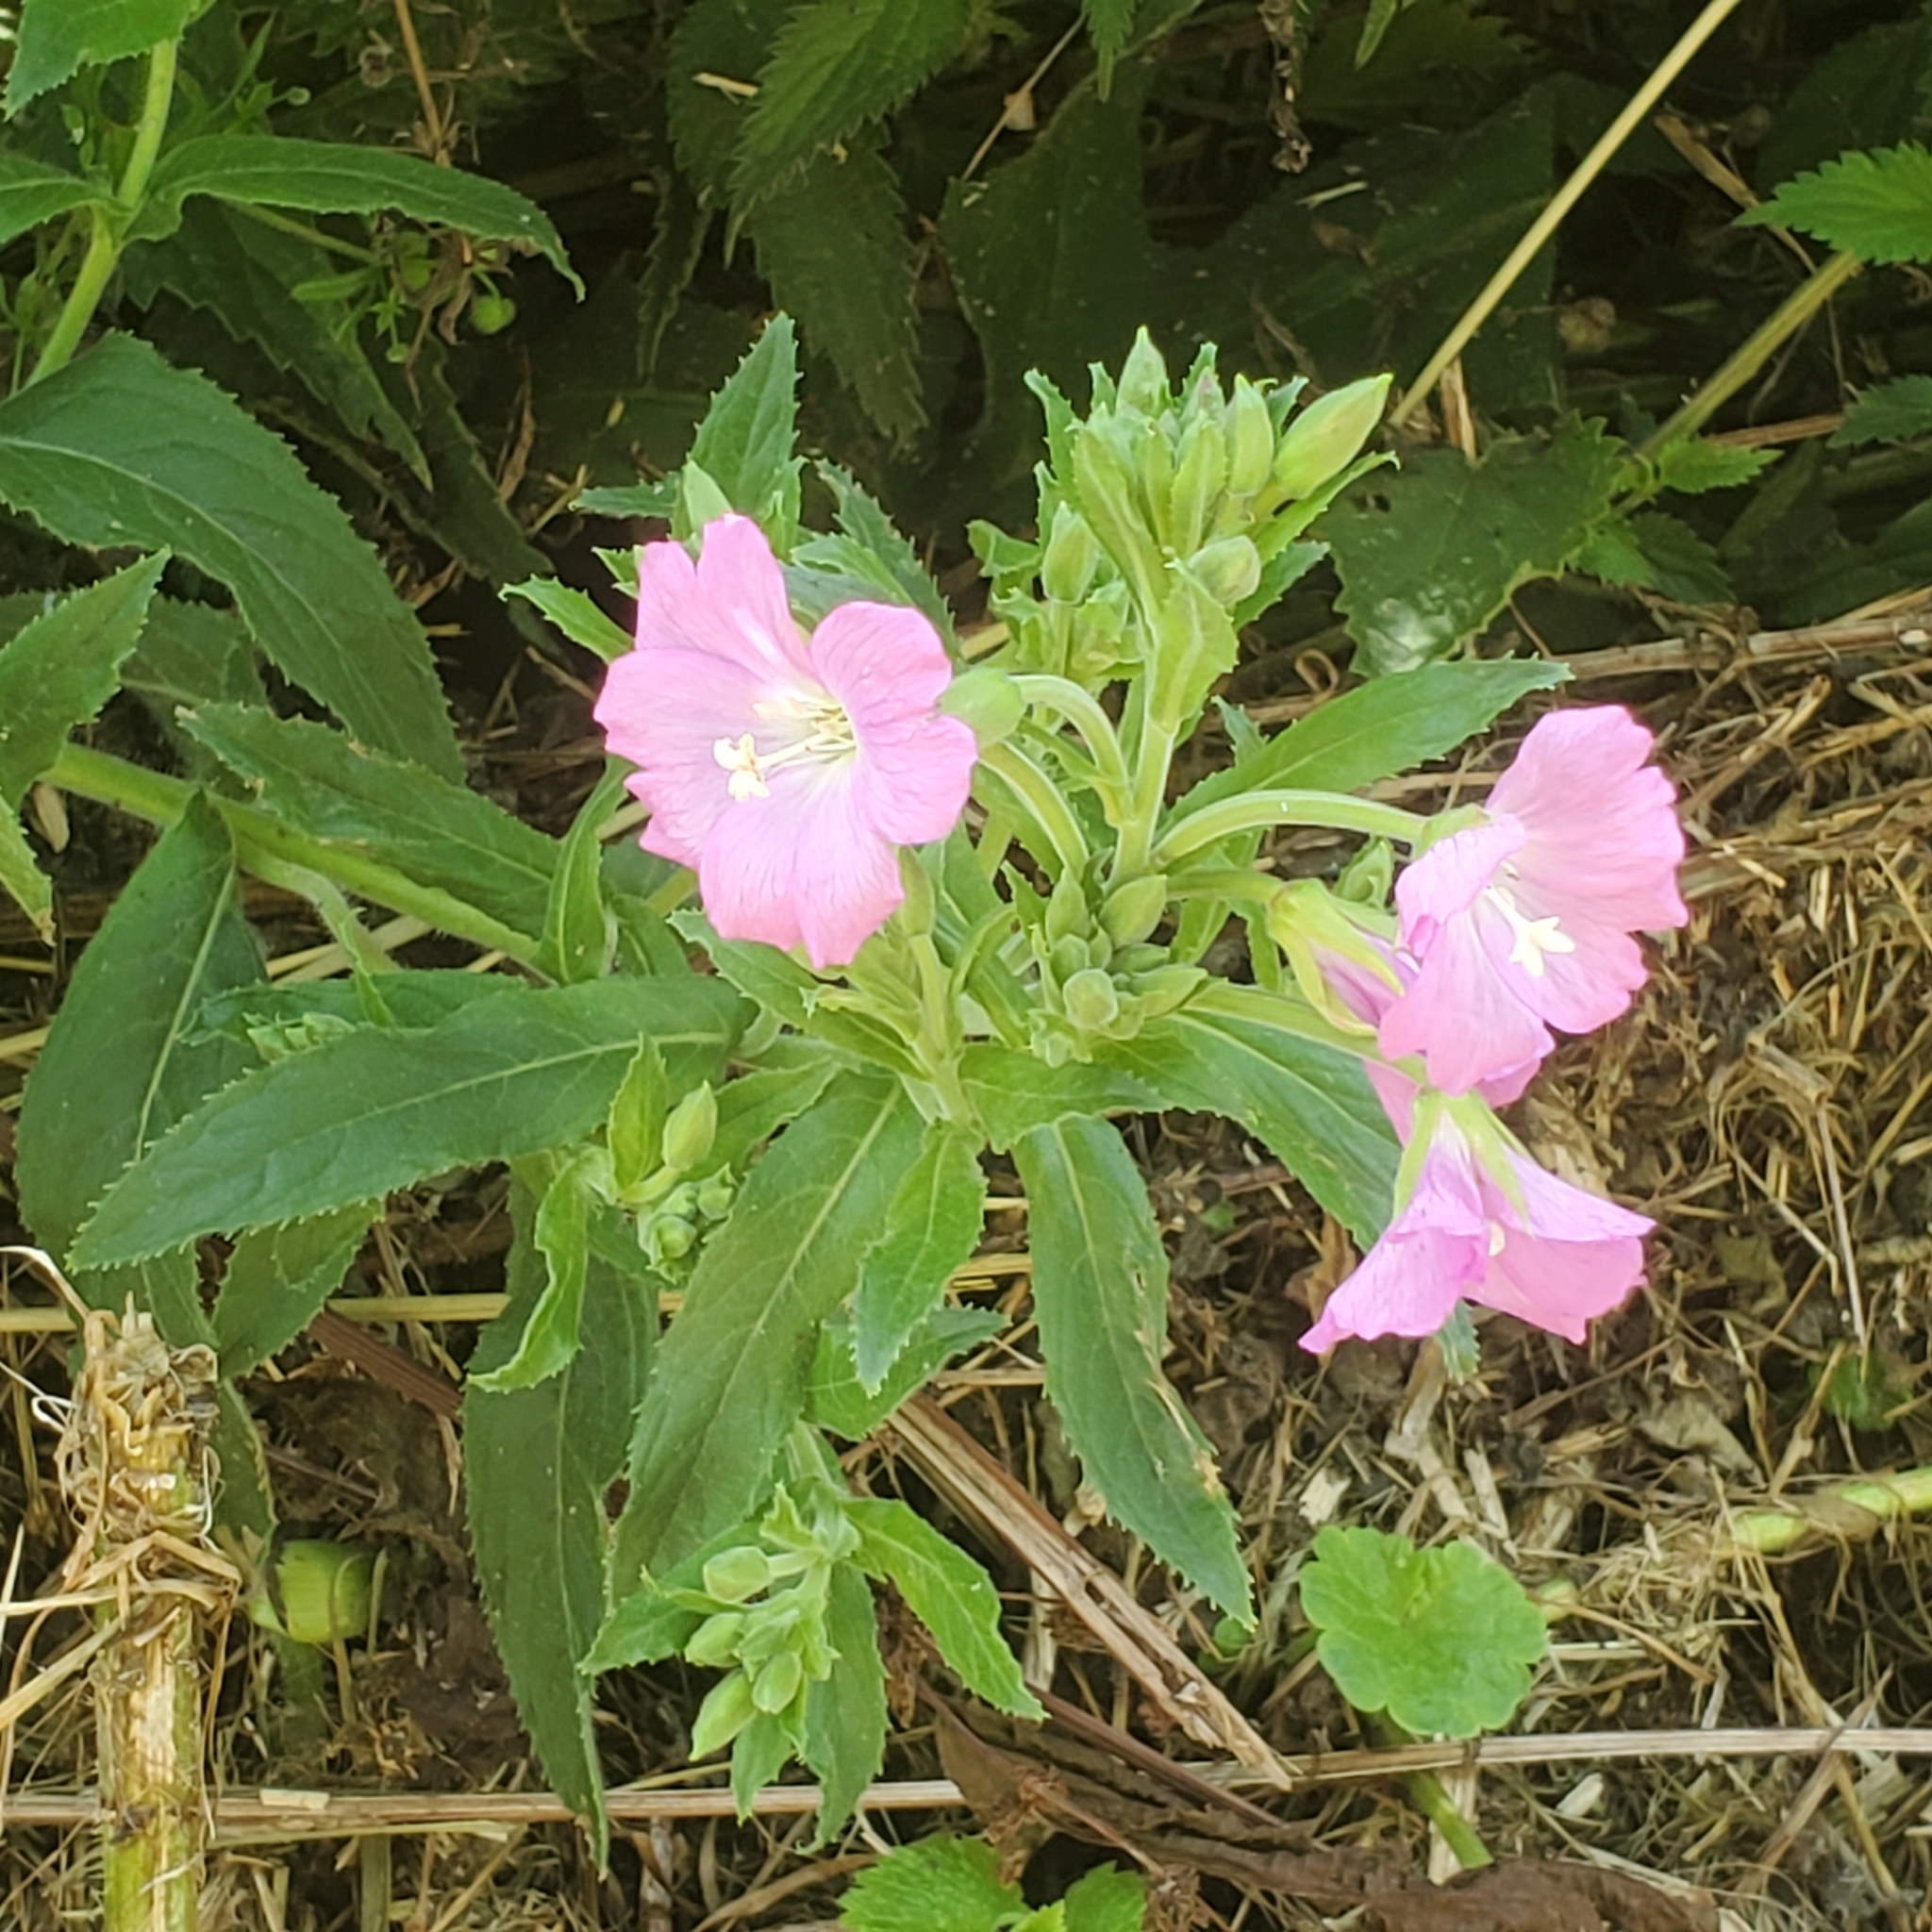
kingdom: Plantae
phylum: Tracheophyta
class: Magnoliopsida
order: Myrtales
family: Onagraceae
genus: Epilobium
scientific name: Epilobium hirsutum
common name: Great willowherb
